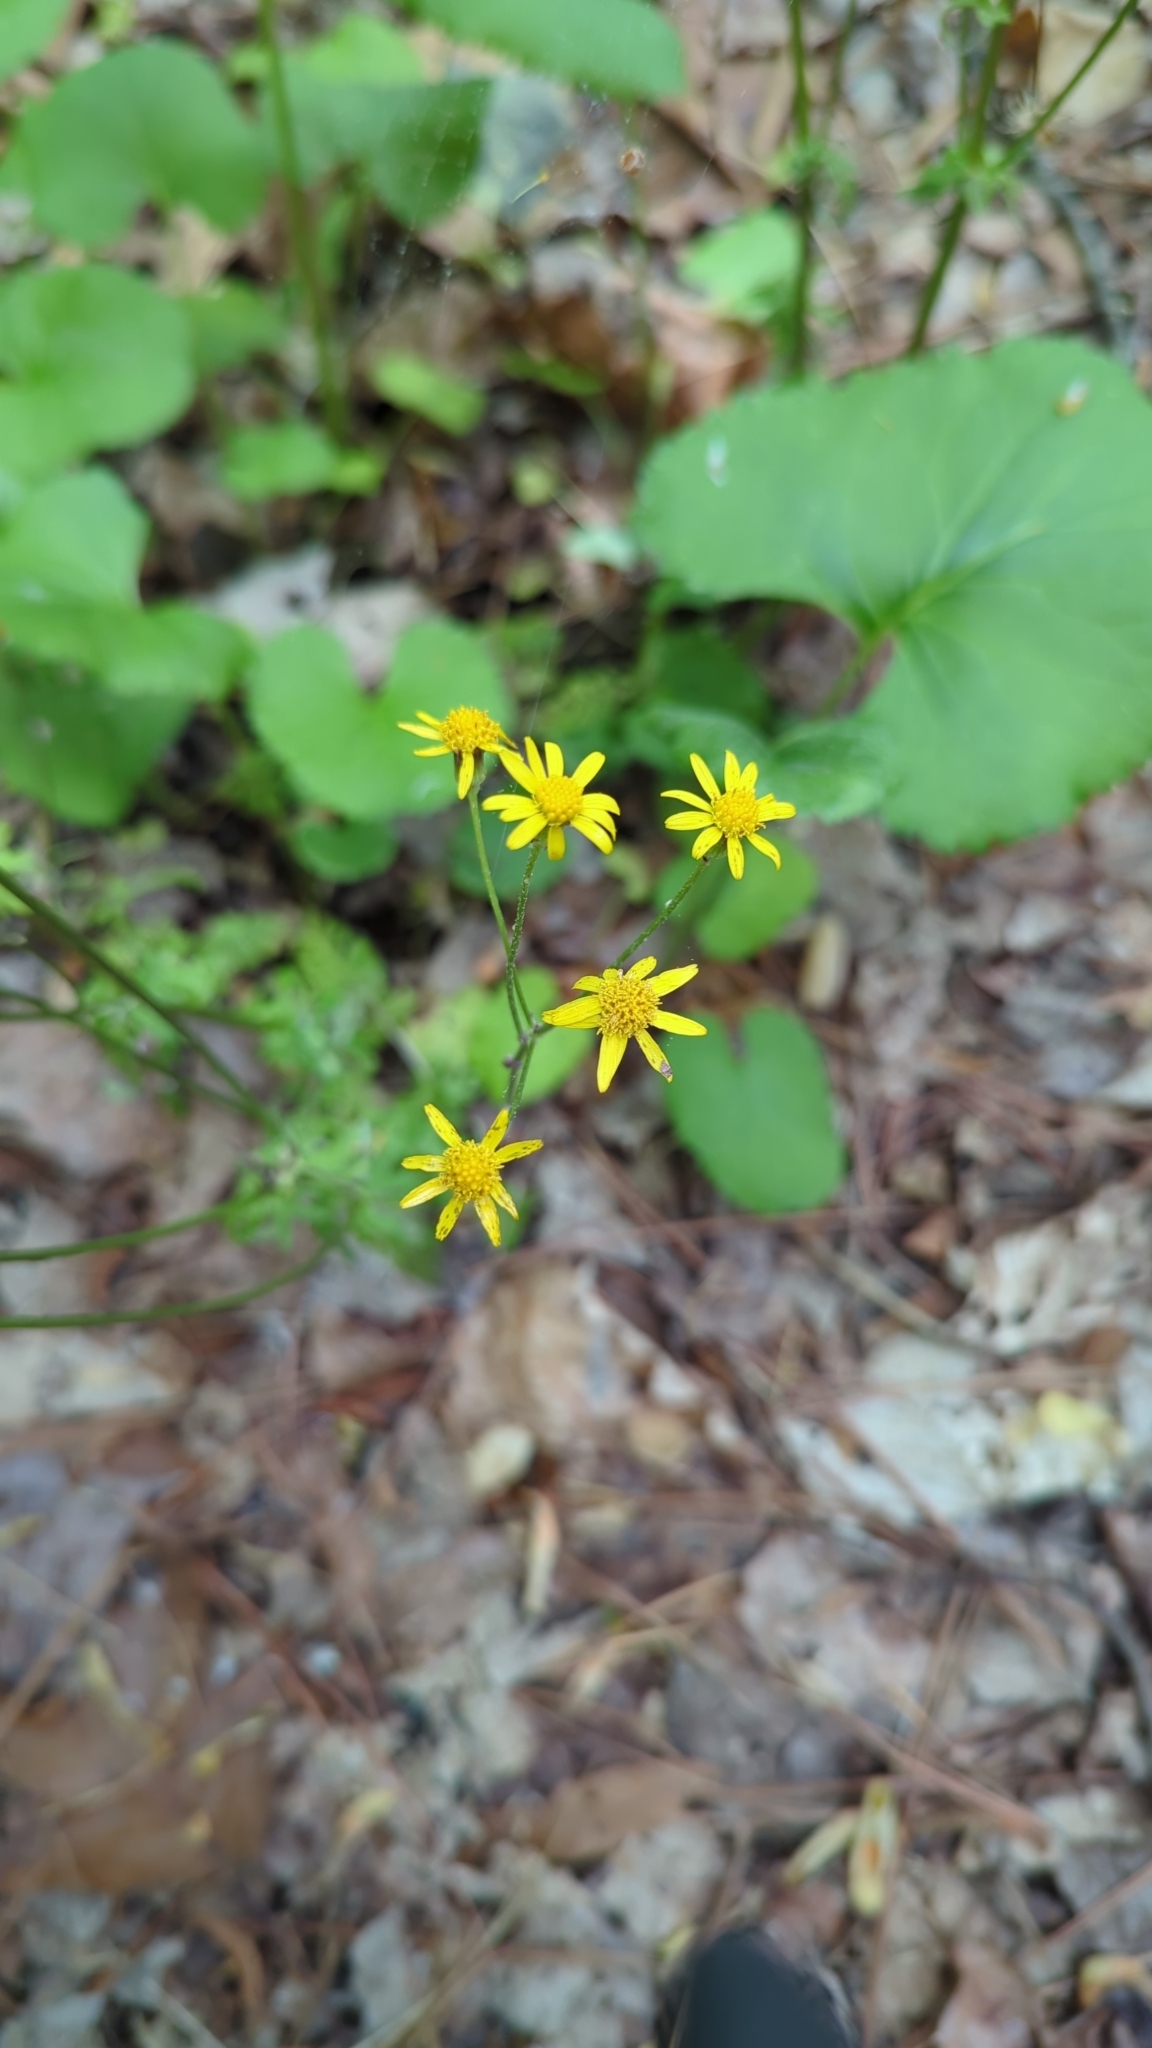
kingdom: Plantae
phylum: Tracheophyta
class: Magnoliopsida
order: Asterales
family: Asteraceae
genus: Packera
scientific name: Packera aurea
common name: Golden groundsel
